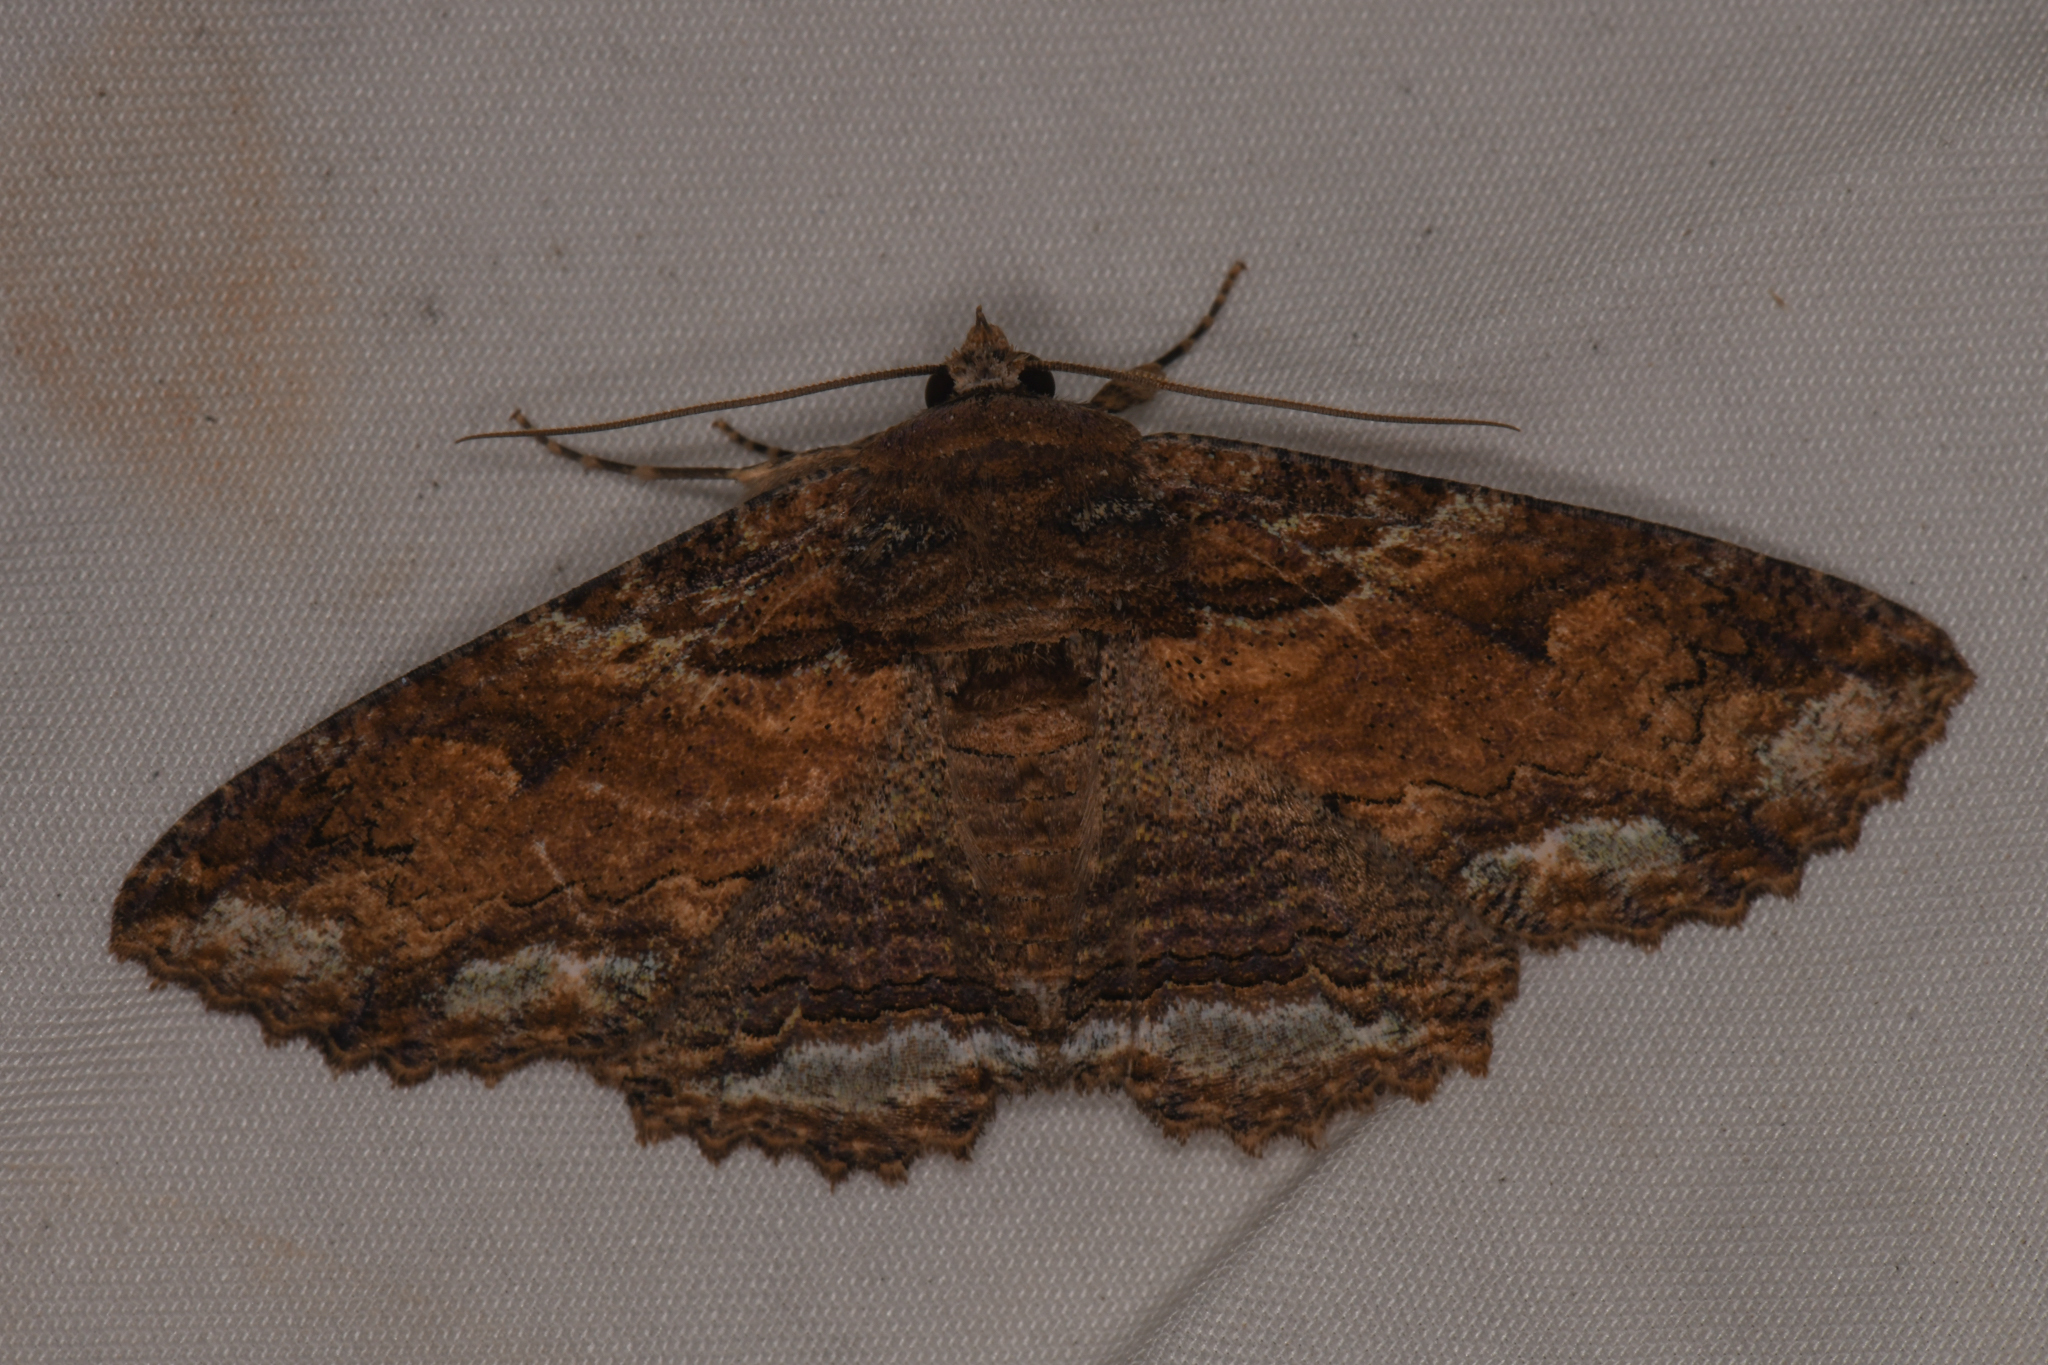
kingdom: Animalia
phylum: Arthropoda
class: Insecta
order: Lepidoptera
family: Erebidae
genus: Zale
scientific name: Zale lunata
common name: Lunate zale moth
